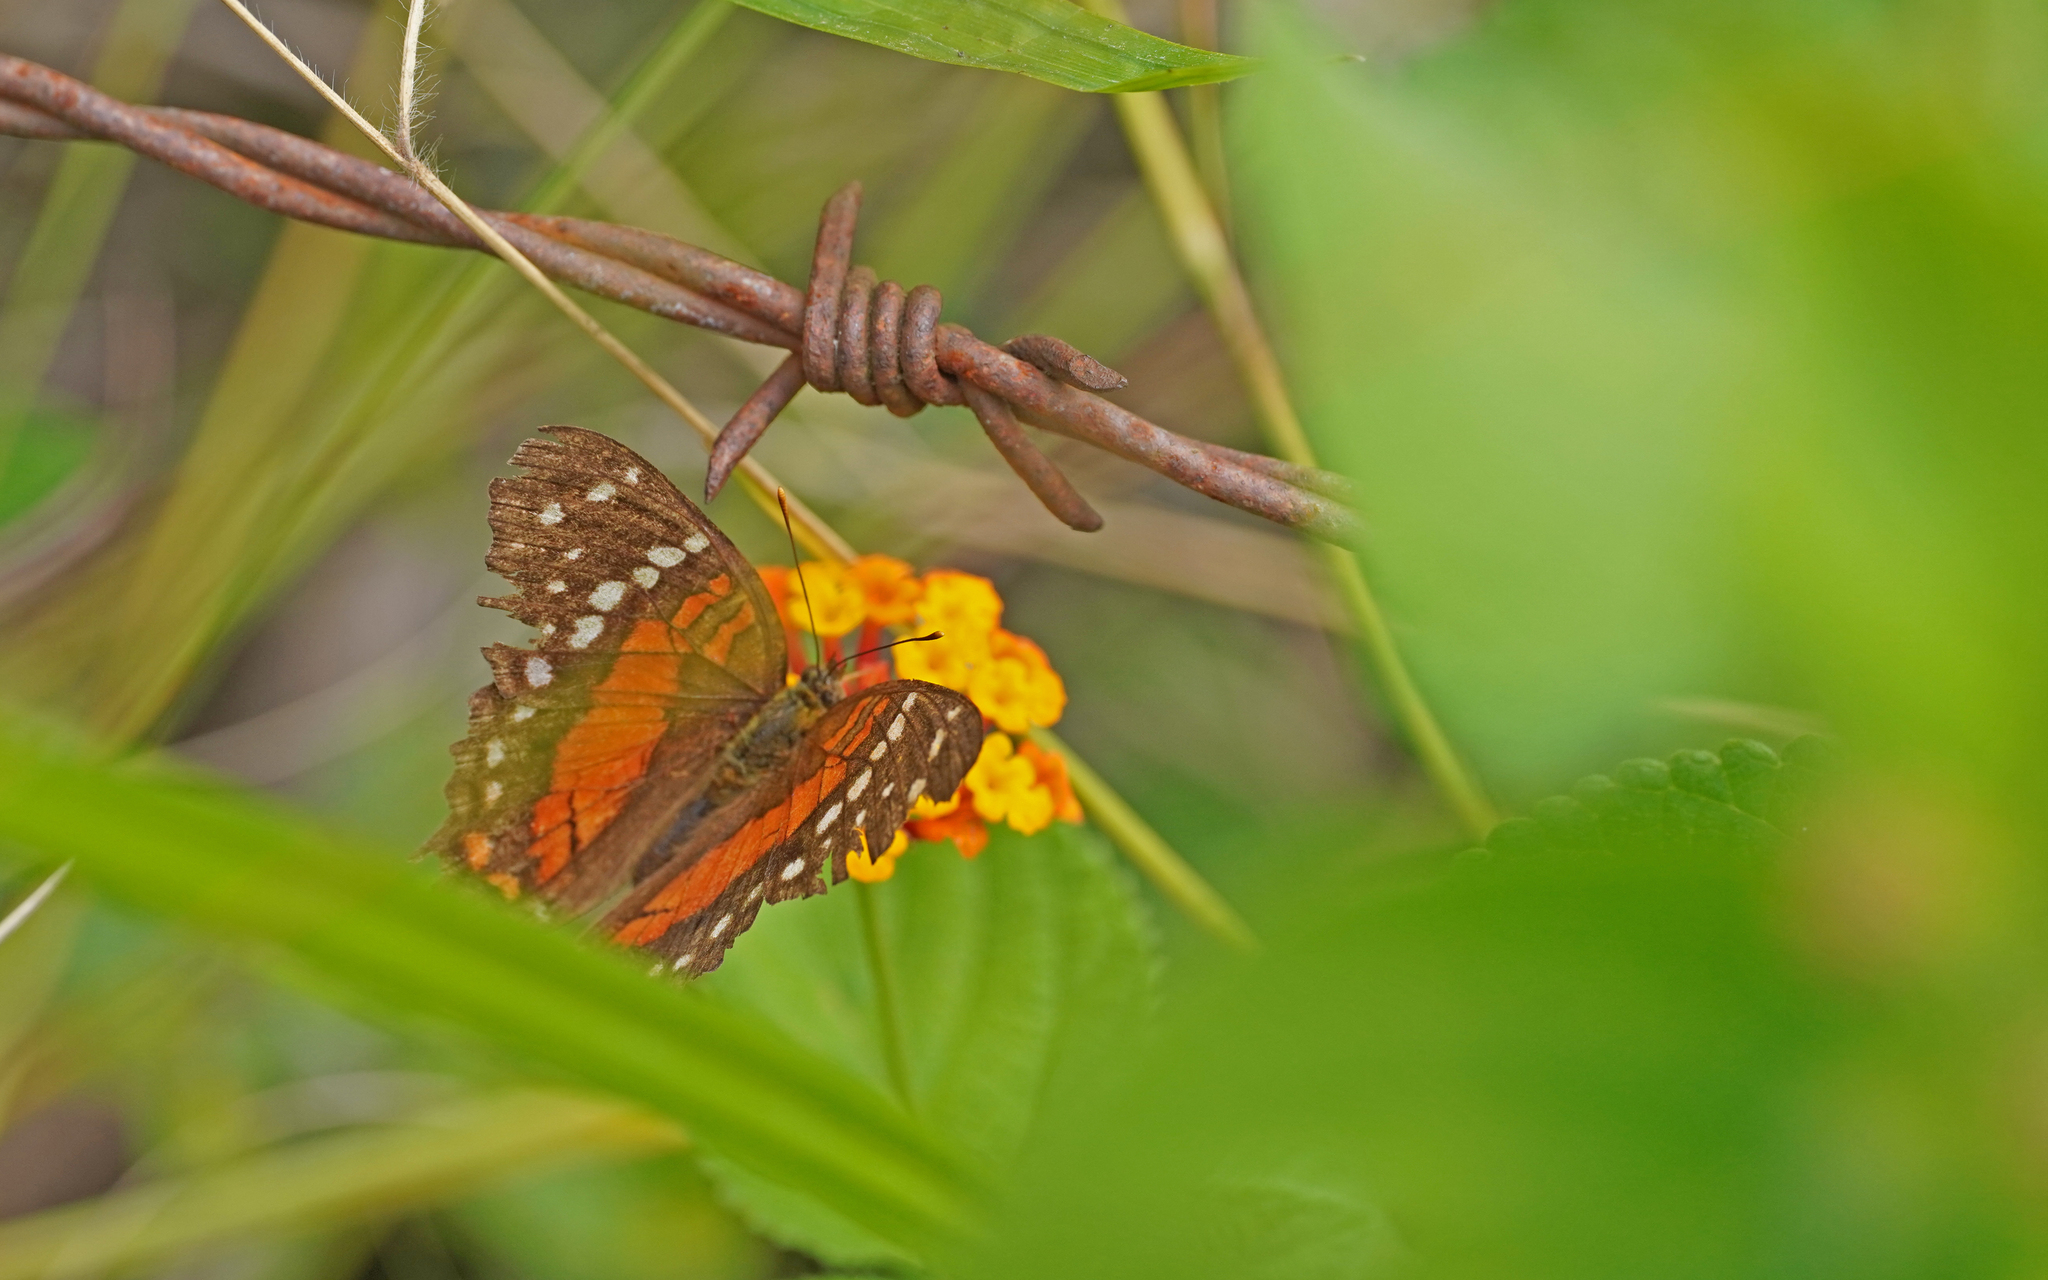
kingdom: Animalia
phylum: Arthropoda
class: Insecta
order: Lepidoptera
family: Nymphalidae
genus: Anartia
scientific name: Anartia amathea
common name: Red peacock
